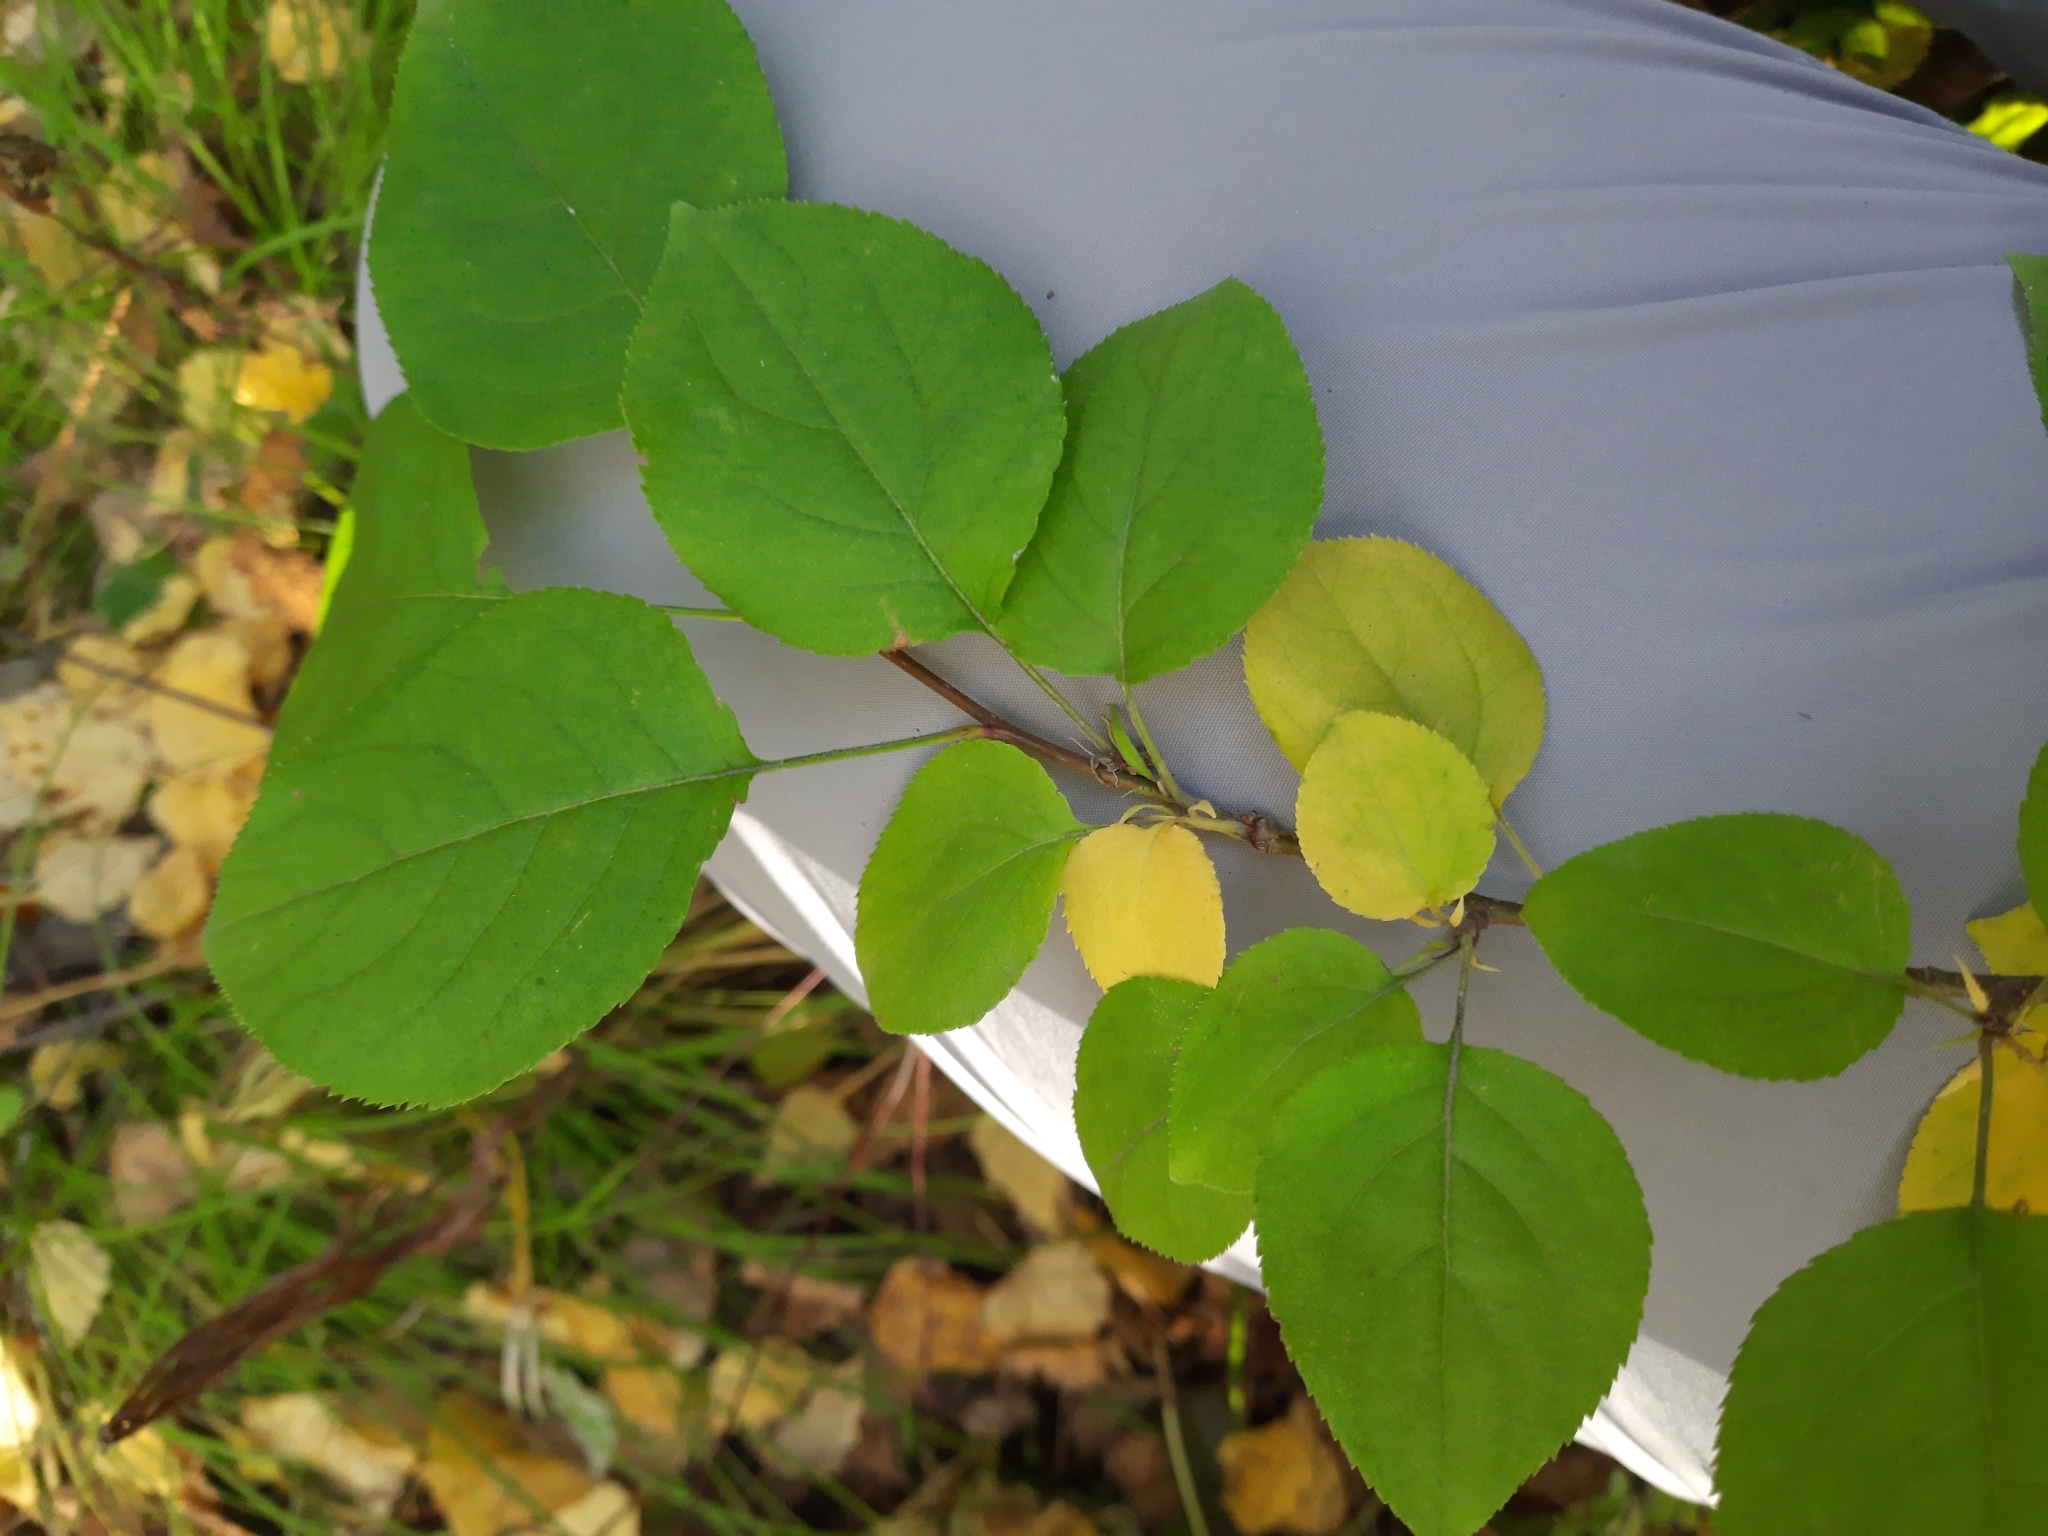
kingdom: Plantae
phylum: Tracheophyta
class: Magnoliopsida
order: Rosales
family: Rosaceae
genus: Malus
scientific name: Malus baccata
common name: Siberian crab
